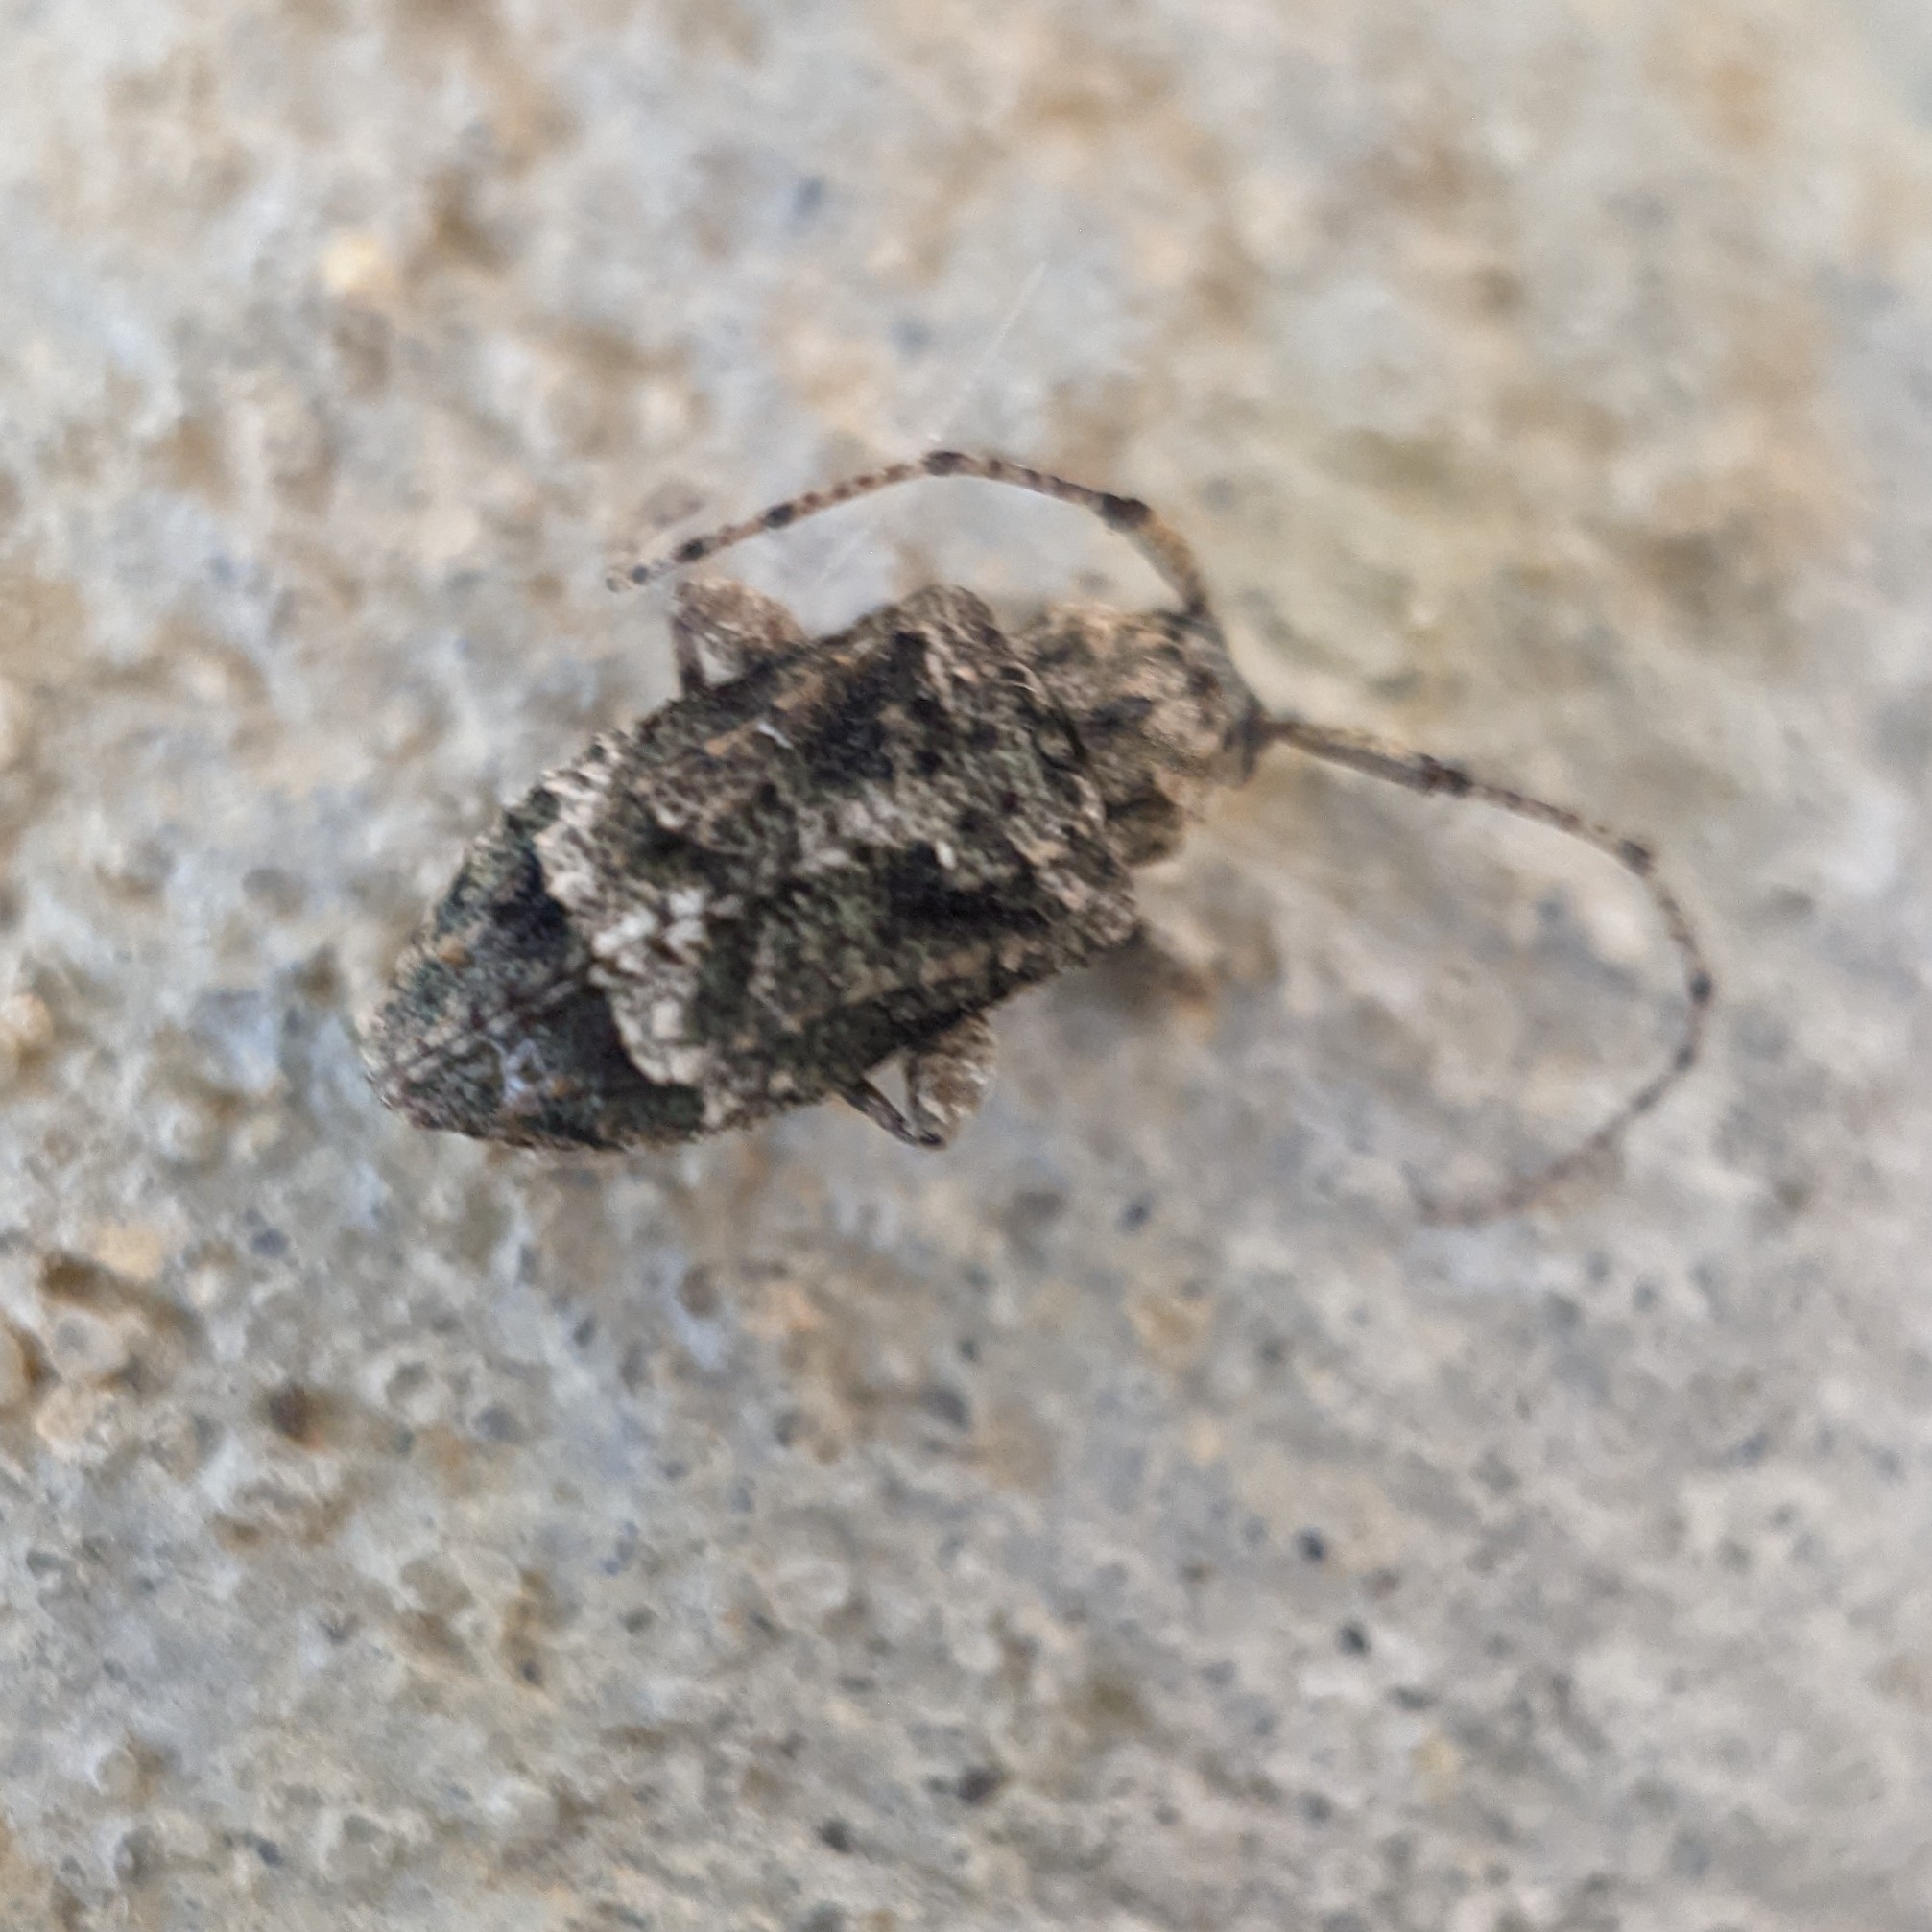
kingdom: Animalia
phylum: Arthropoda
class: Insecta
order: Coleoptera
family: Cerambycidae
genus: Leptostylus
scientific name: Leptostylus transversus
